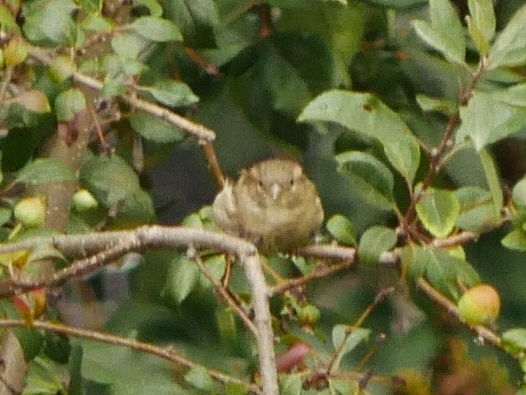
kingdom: Animalia
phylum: Chordata
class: Aves
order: Passeriformes
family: Passeridae
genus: Passer
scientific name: Passer domesticus
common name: House sparrow
